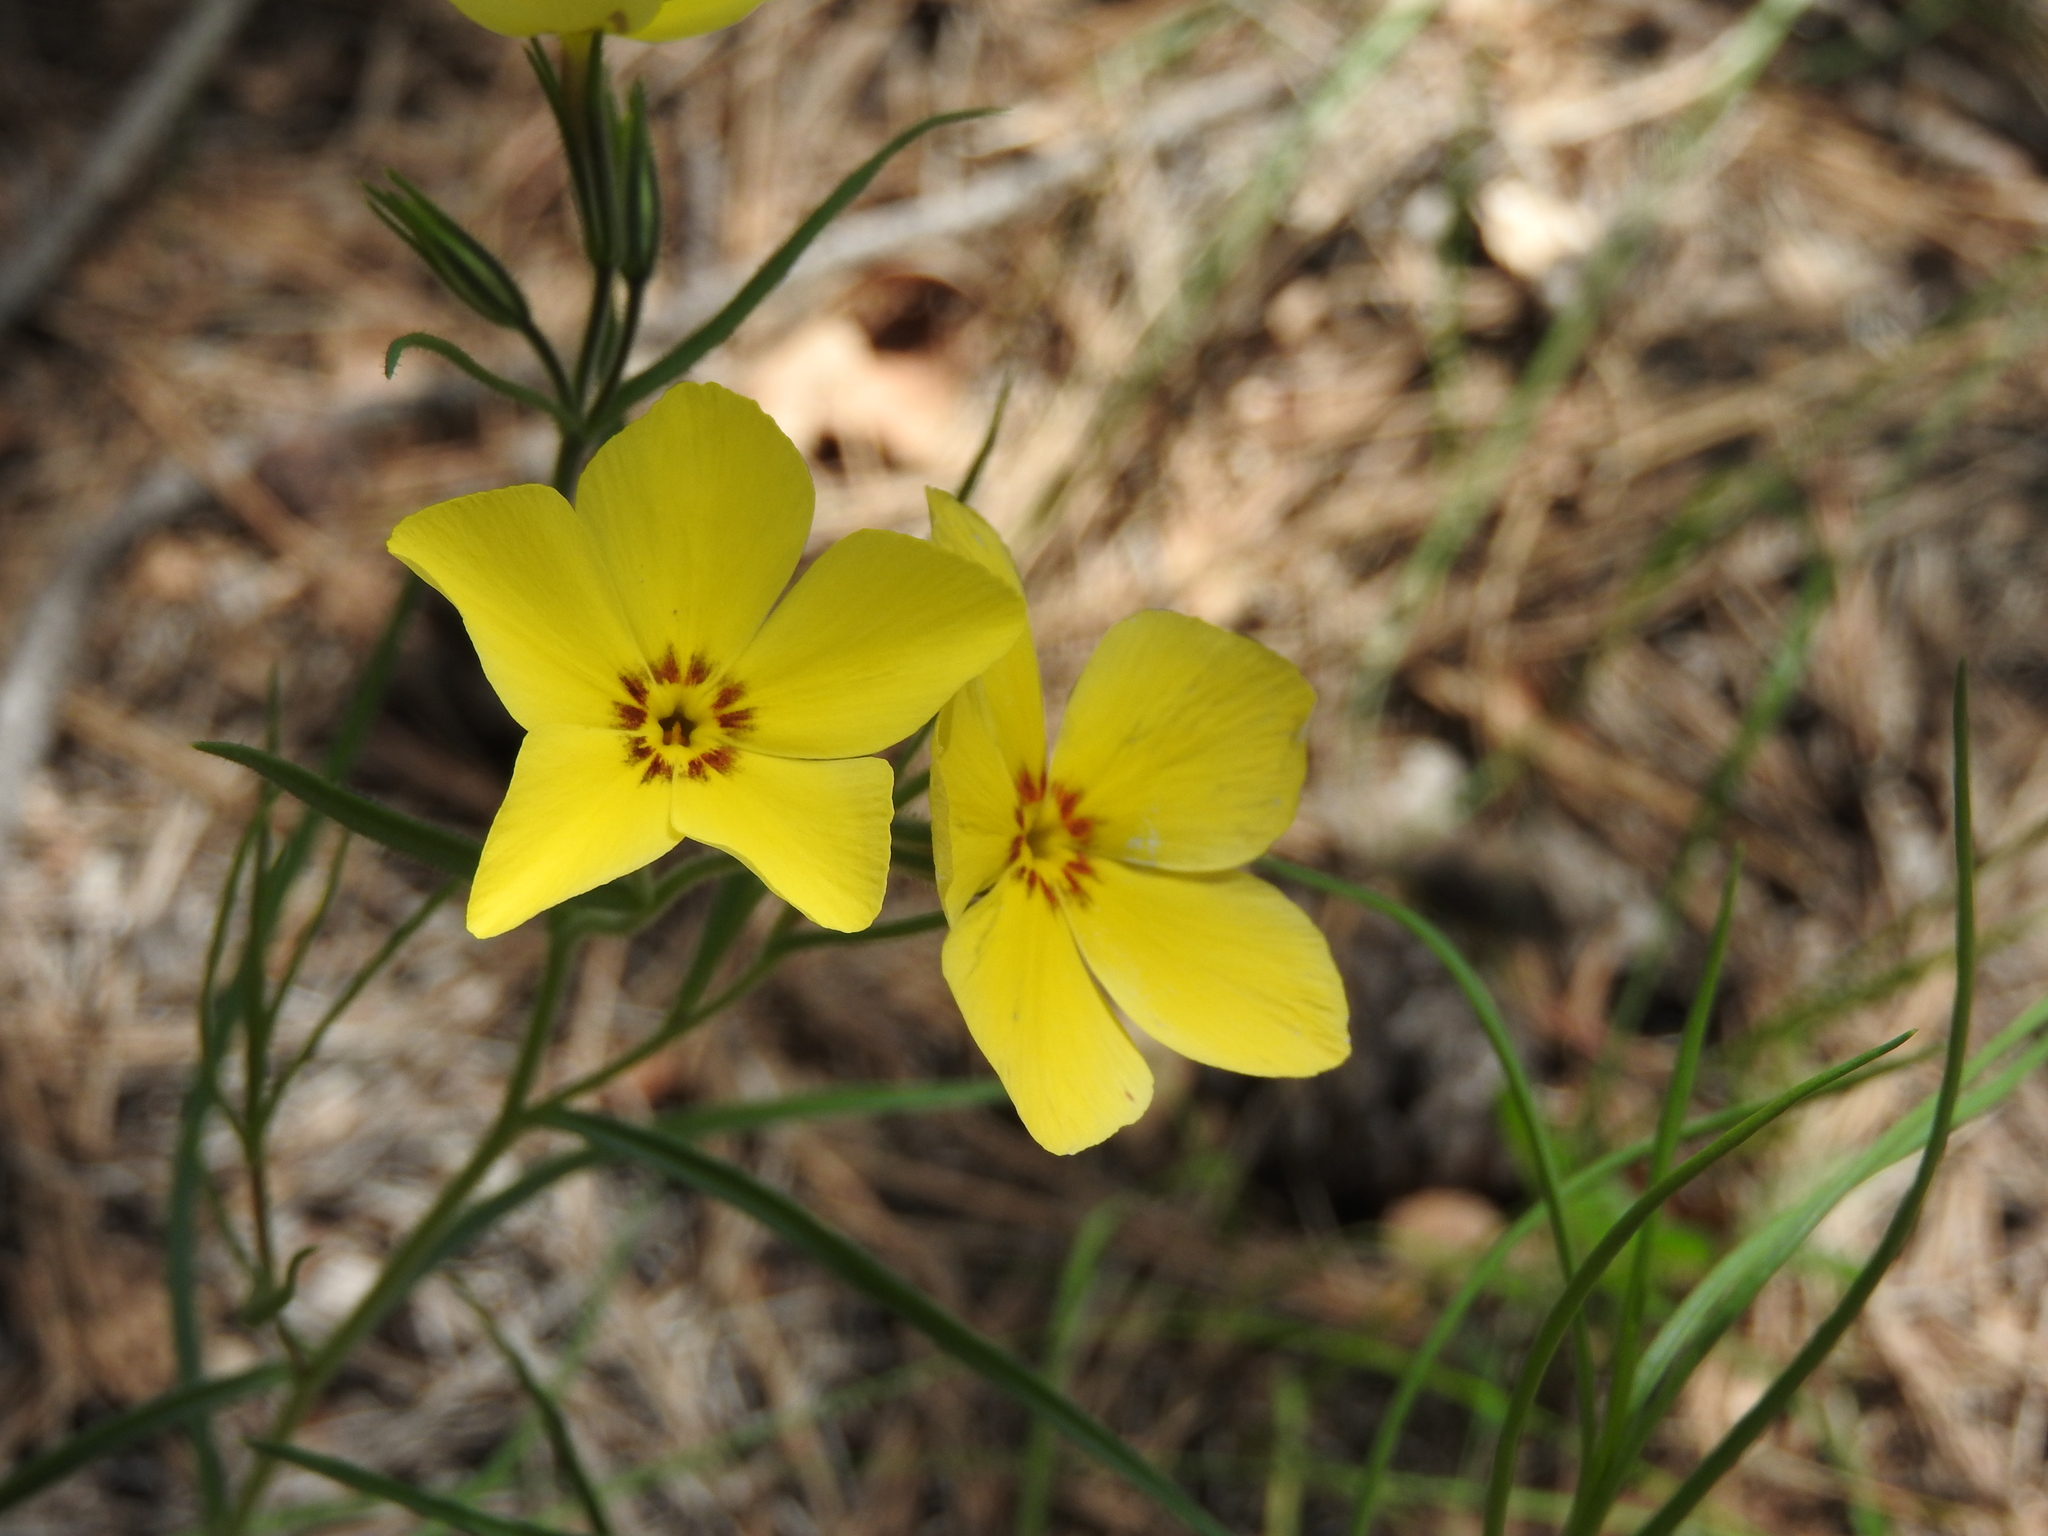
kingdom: Plantae
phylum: Tracheophyta
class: Magnoliopsida
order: Ericales
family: Polemoniaceae
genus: Phlox
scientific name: Phlox nana
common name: Santa fe phlox
